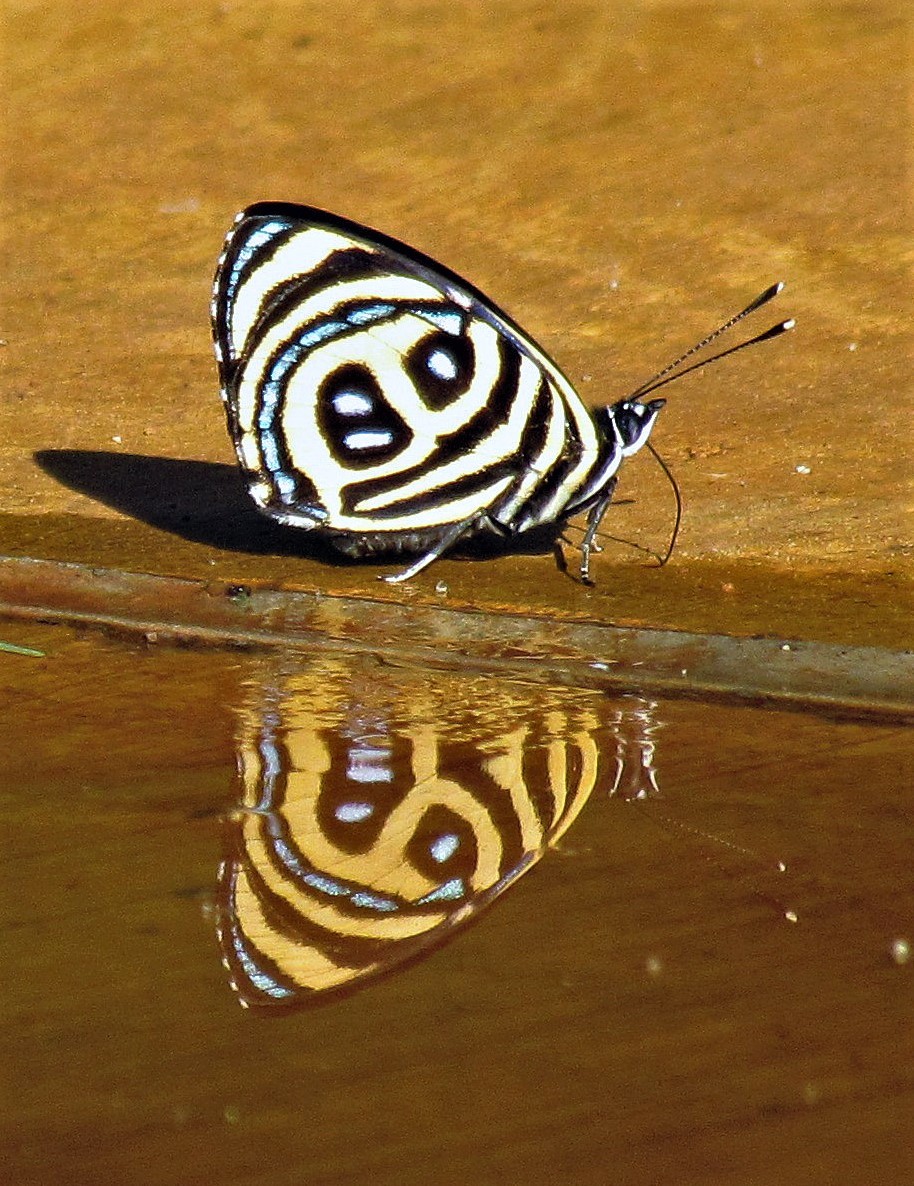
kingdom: Animalia
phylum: Arthropoda
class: Insecta
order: Lepidoptera
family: Nymphalidae
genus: Catagramma
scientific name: Catagramma pyracmon
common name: Google-eyed eighty-eight
